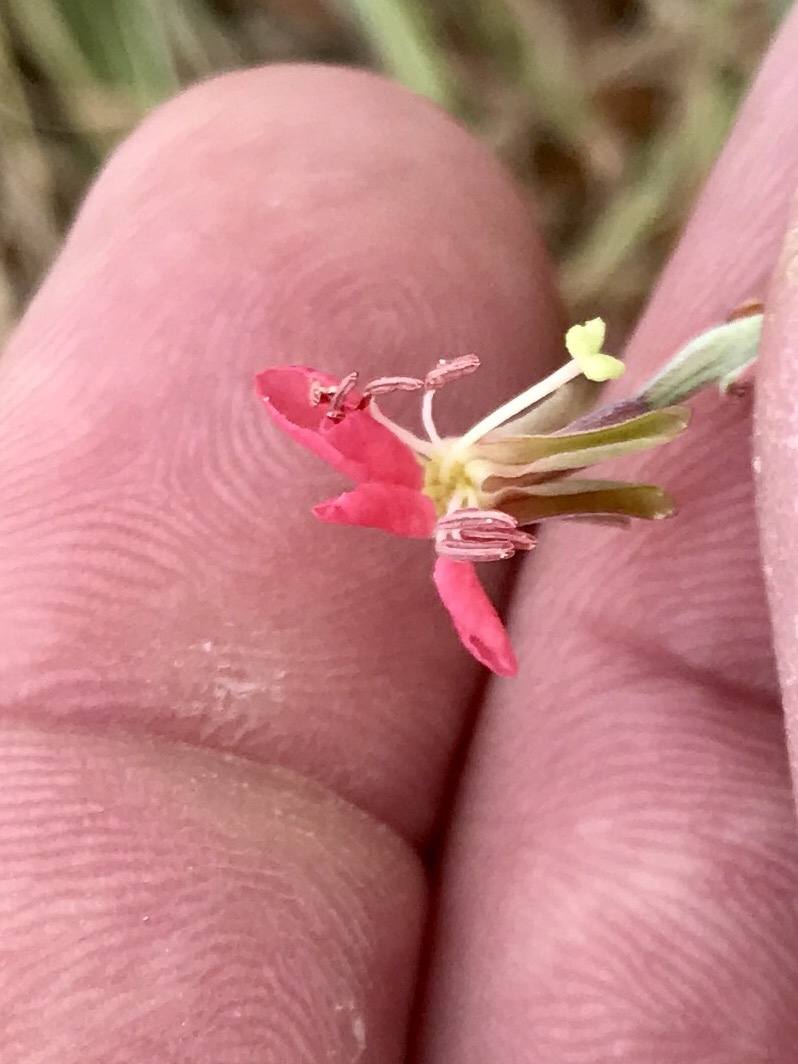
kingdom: Plantae
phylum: Tracheophyta
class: Magnoliopsida
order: Myrtales
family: Onagraceae
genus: Oenothera
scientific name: Oenothera suffrutescens
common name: Scarlet beeblossom
